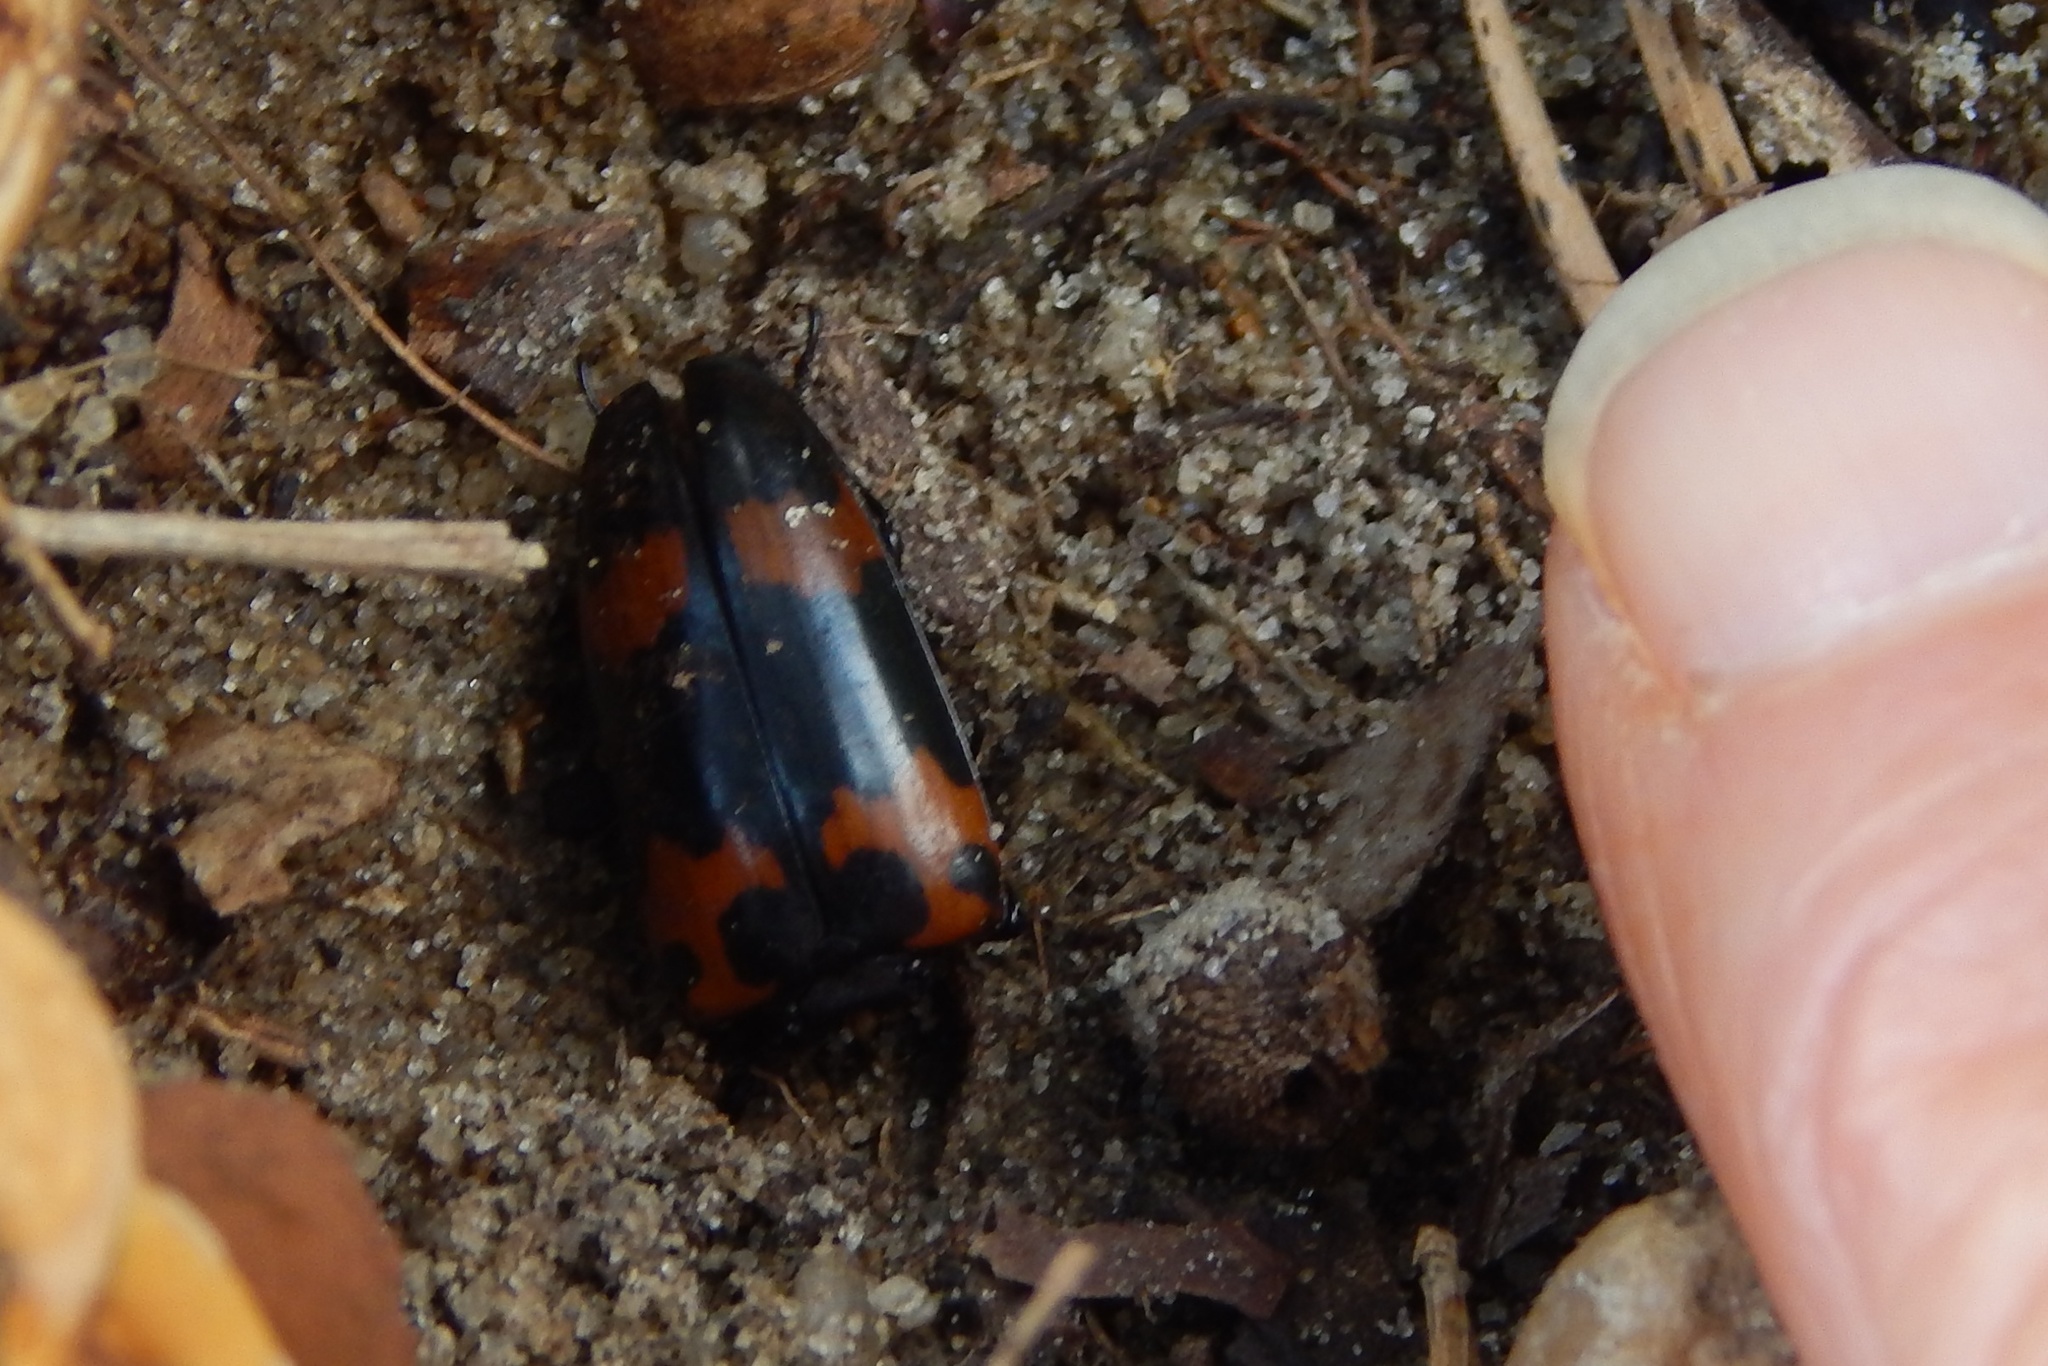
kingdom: Animalia
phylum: Arthropoda
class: Insecta
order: Coleoptera
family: Erotylidae
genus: Megalodacne
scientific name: Megalodacne heros
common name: Pleasing fungus beetle
